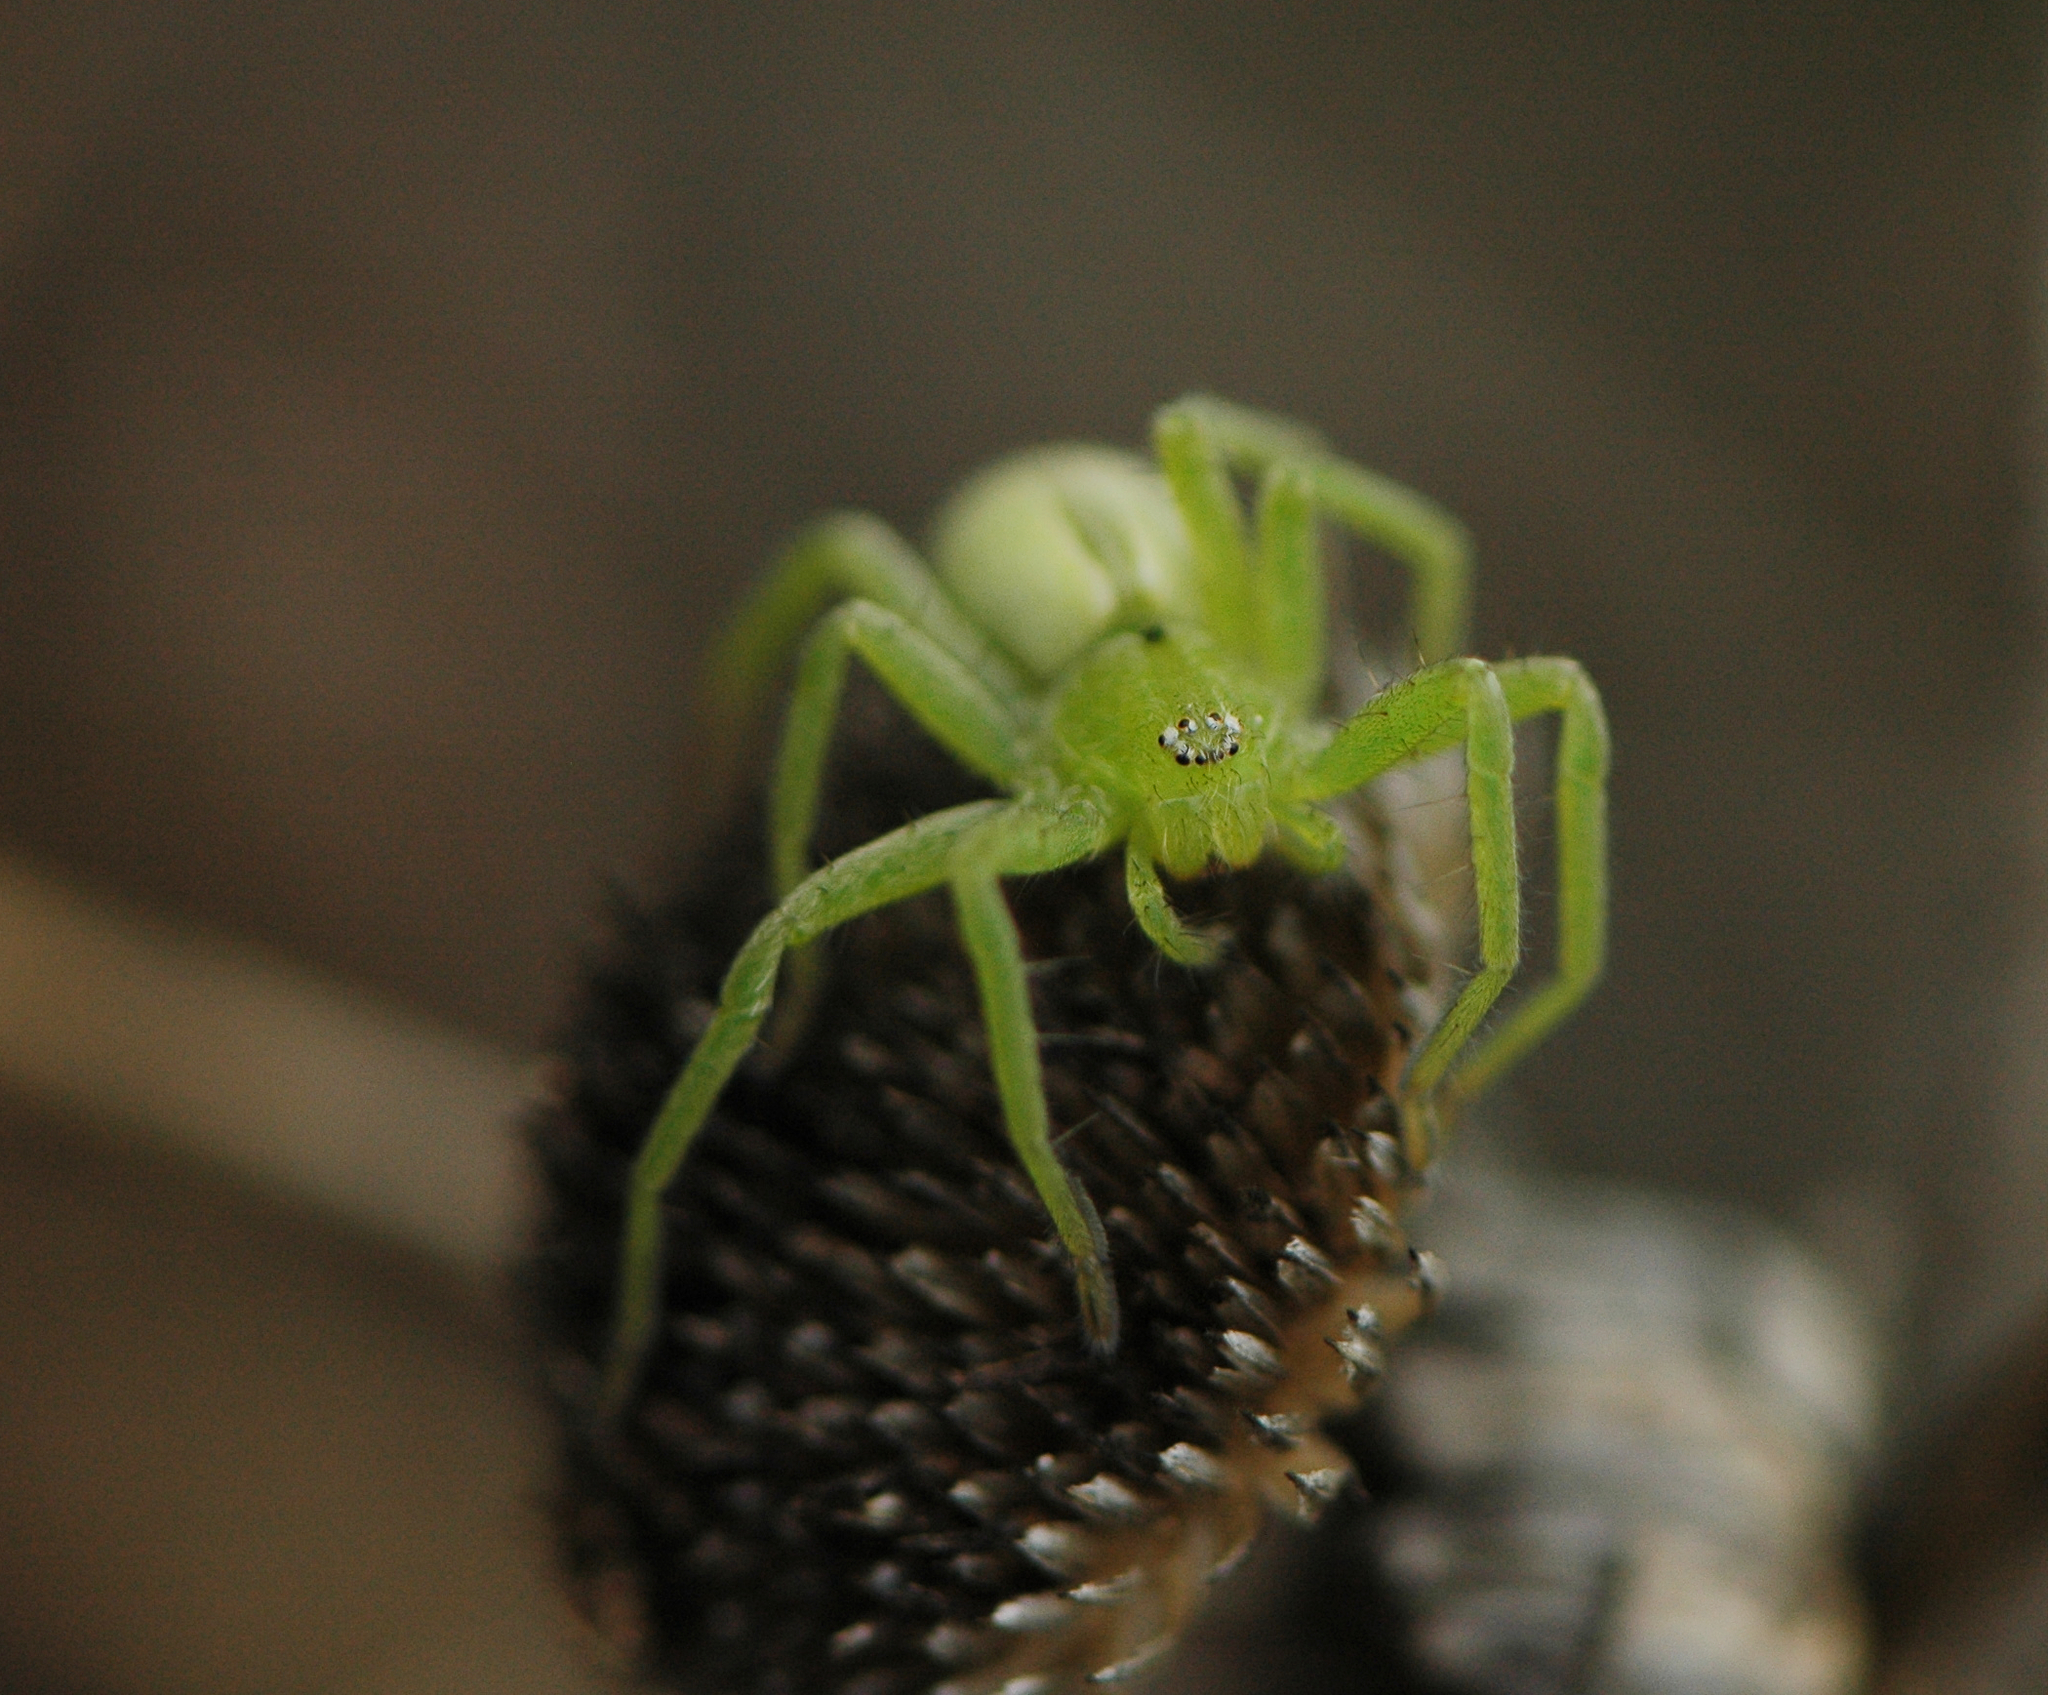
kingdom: Animalia
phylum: Arthropoda
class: Arachnida
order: Araneae
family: Sparassidae
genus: Micrommata
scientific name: Micrommata ligurina
